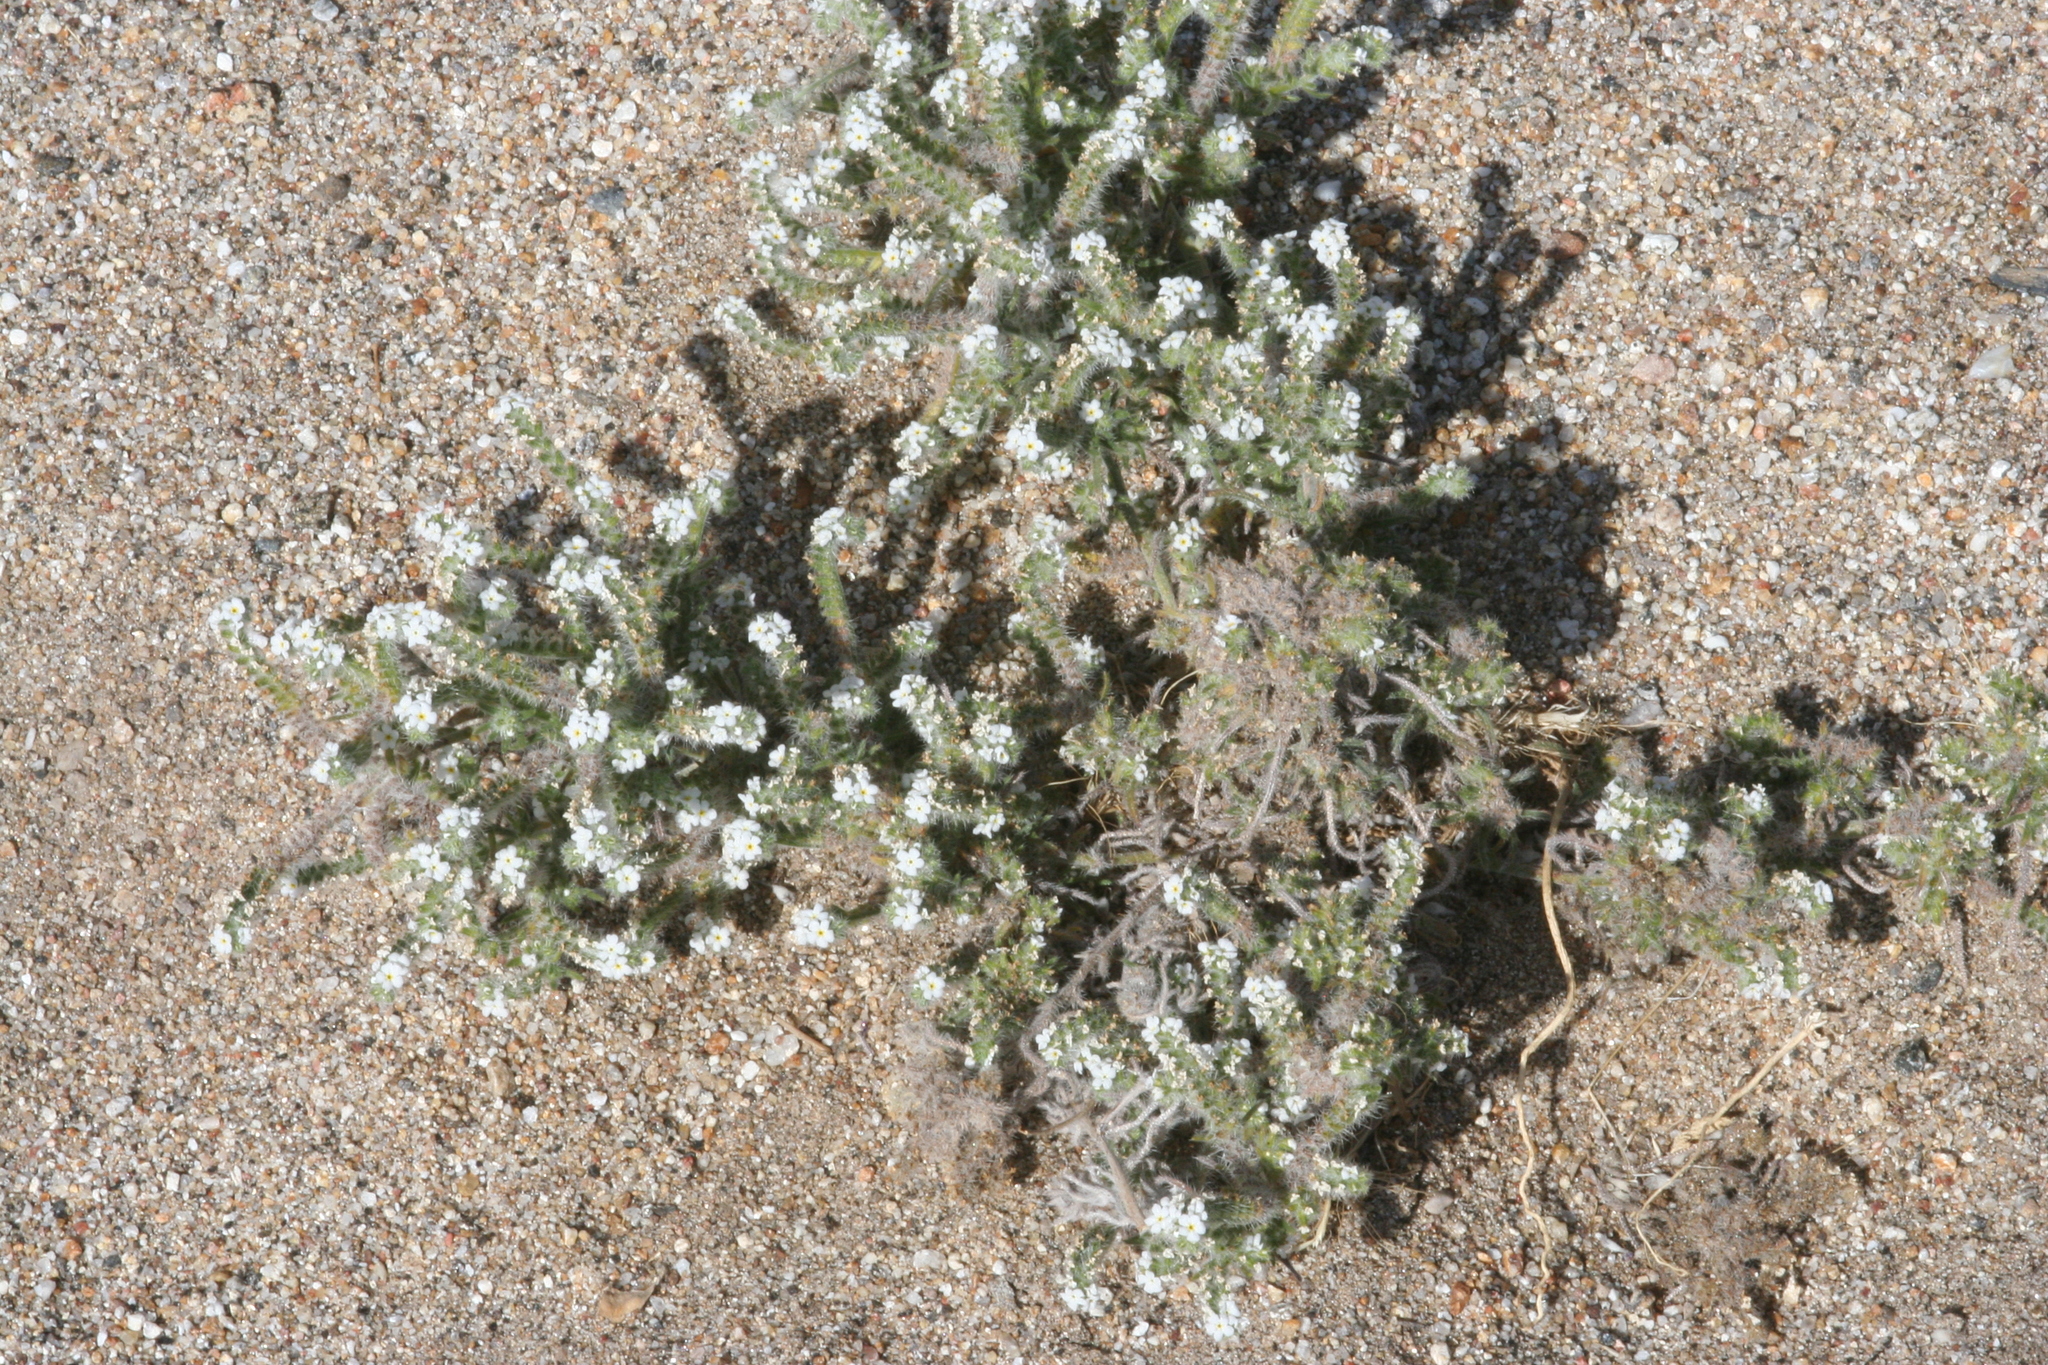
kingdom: Plantae
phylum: Tracheophyta
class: Magnoliopsida
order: Boraginales
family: Boraginaceae
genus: Johnstonella
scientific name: Johnstonella angustifolia
